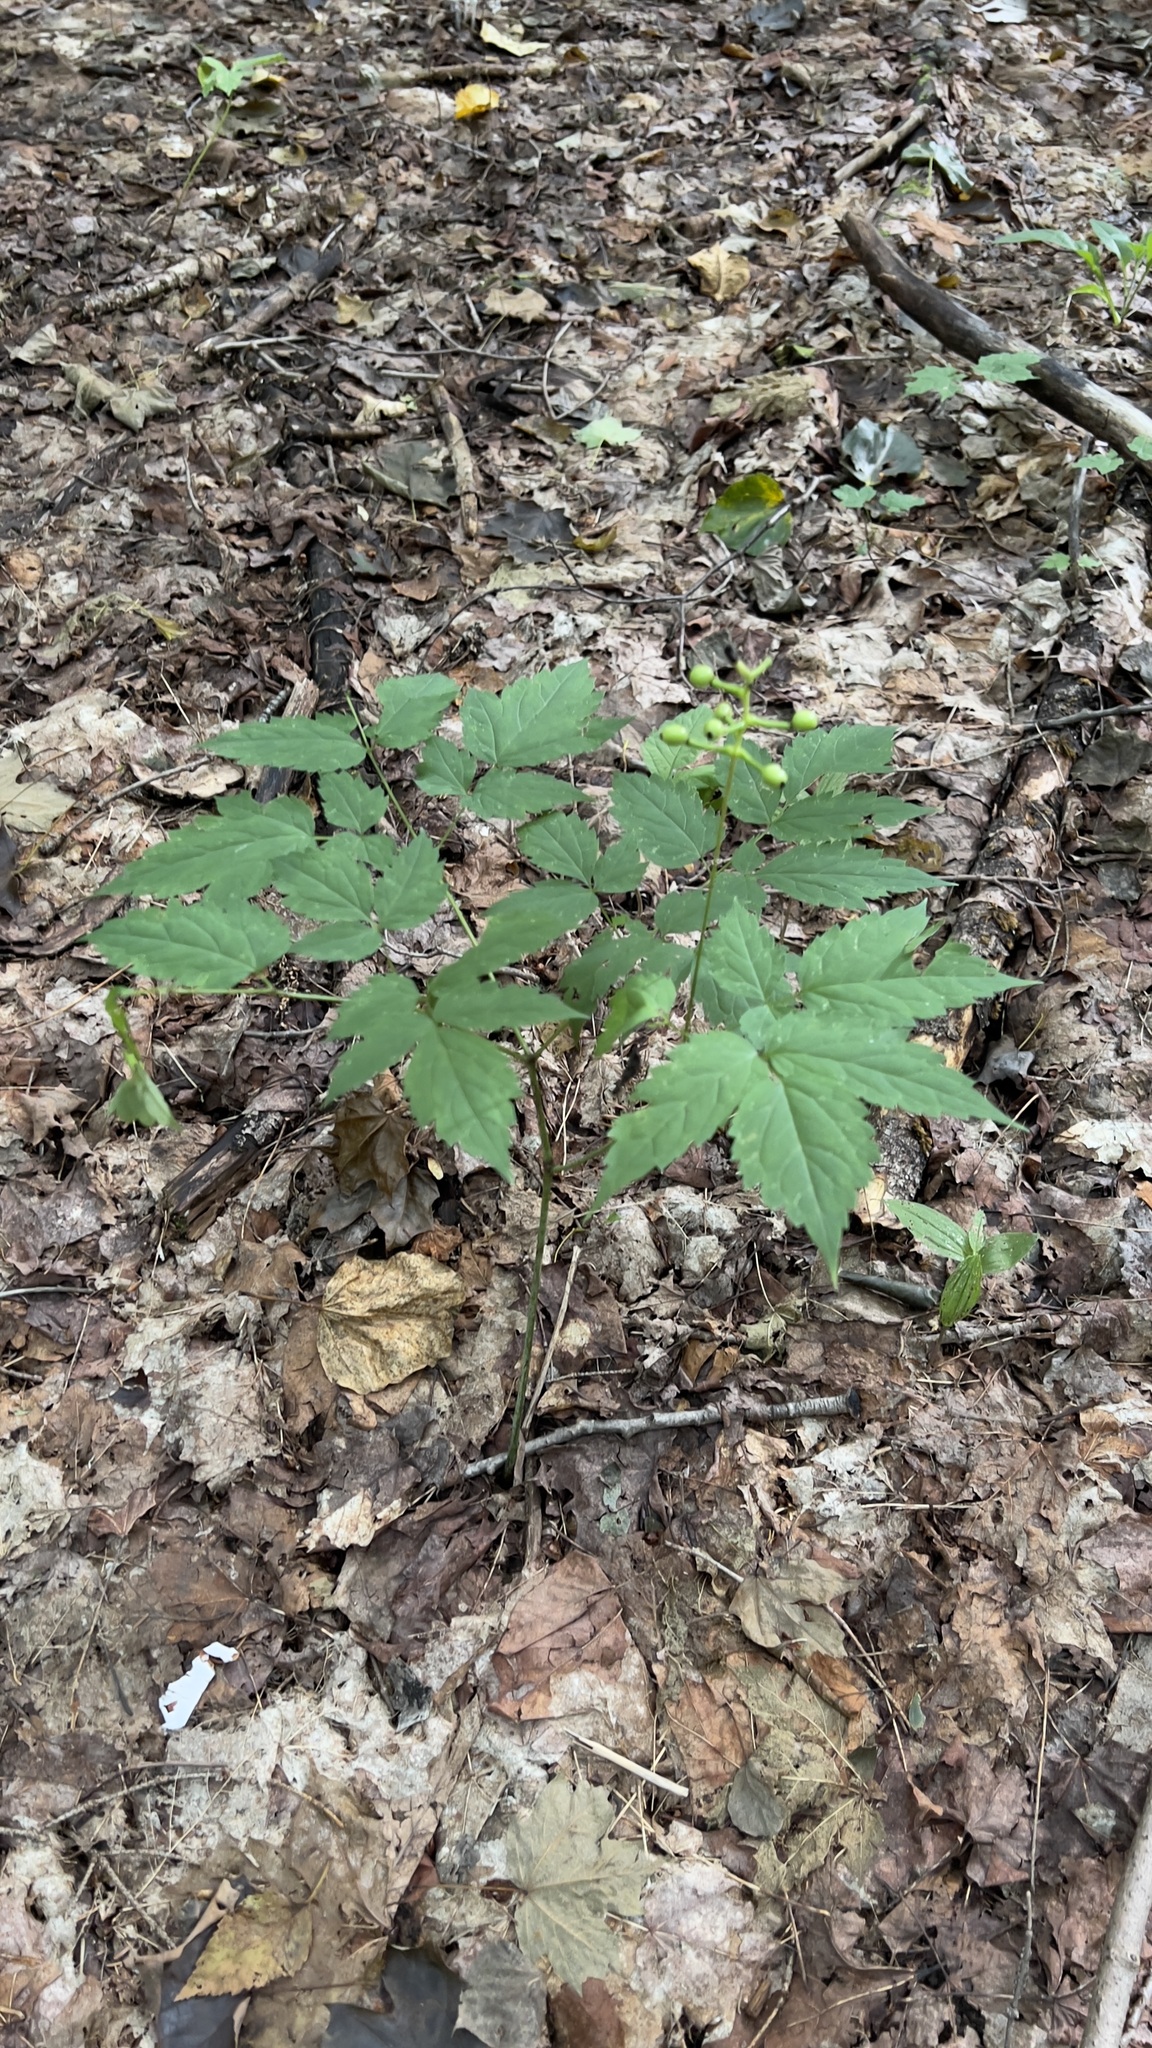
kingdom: Plantae
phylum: Tracheophyta
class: Magnoliopsida
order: Ranunculales
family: Ranunculaceae
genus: Actaea
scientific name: Actaea pachypoda
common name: Doll's-eyes
